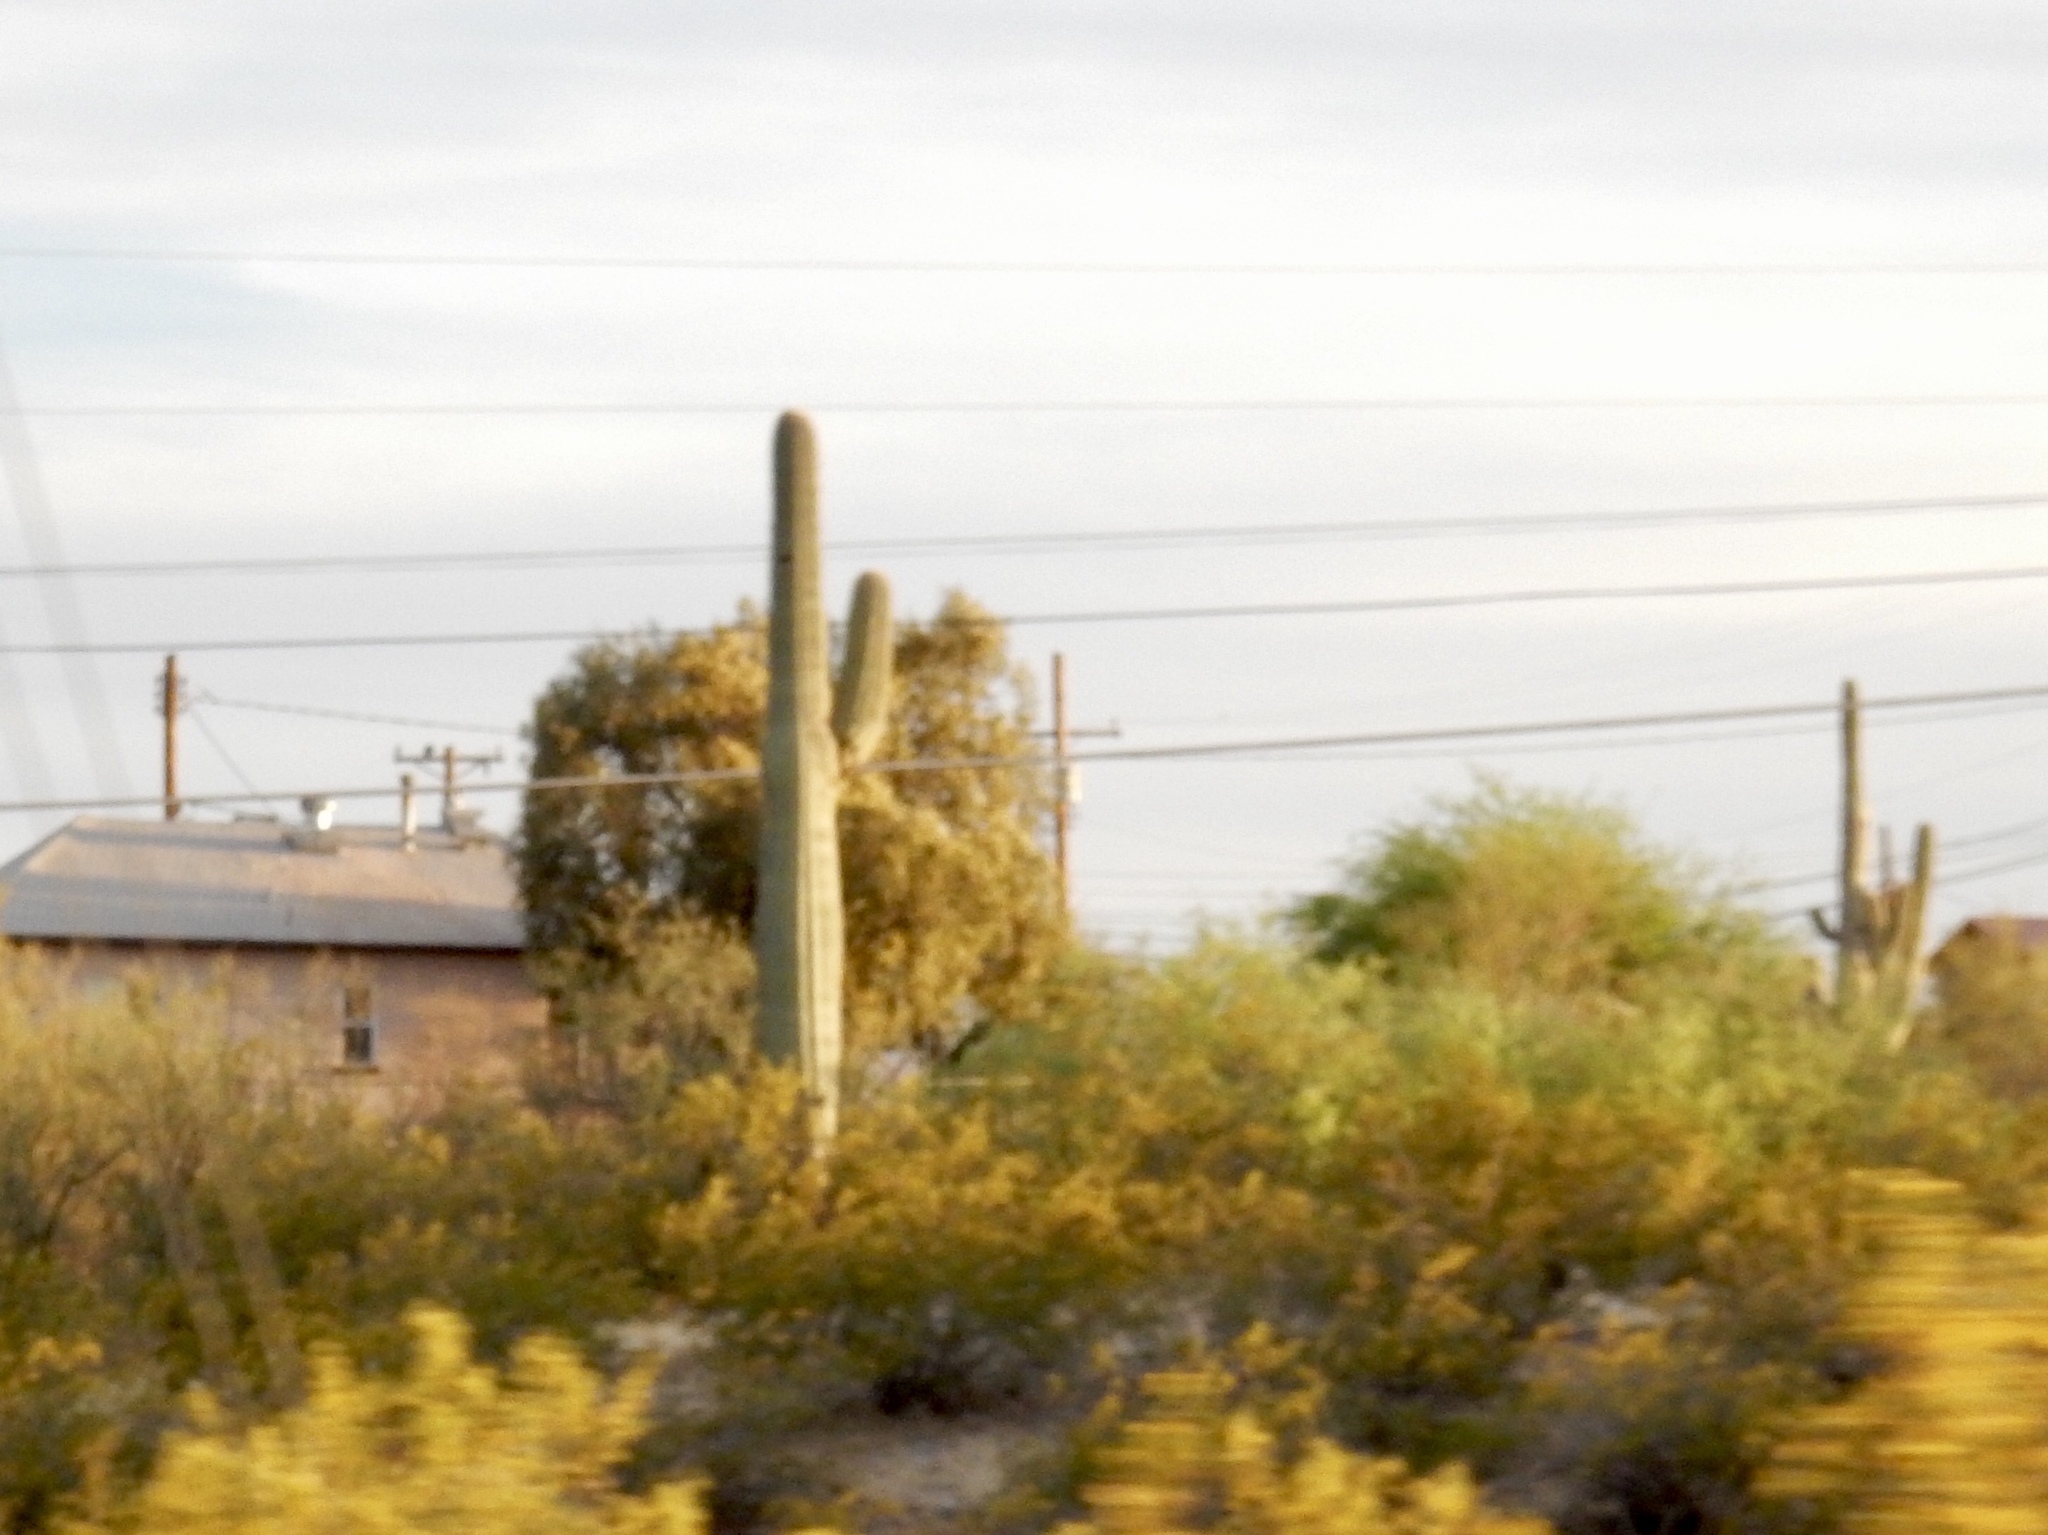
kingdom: Plantae
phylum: Tracheophyta
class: Magnoliopsida
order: Caryophyllales
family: Cactaceae
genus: Carnegiea
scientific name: Carnegiea gigantea
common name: Saguaro
